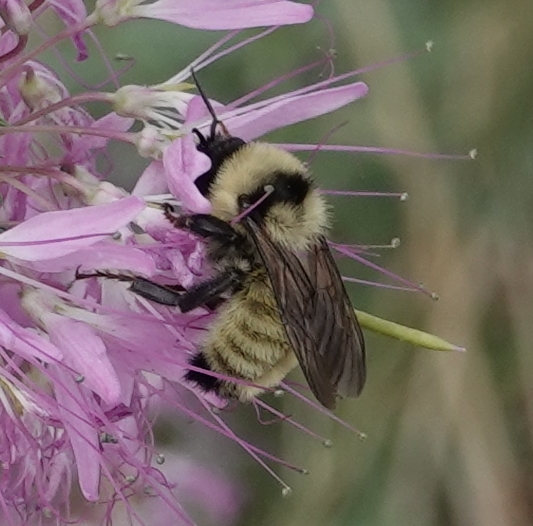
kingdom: Animalia
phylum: Arthropoda
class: Insecta
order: Hymenoptera
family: Apidae
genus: Bombus
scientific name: Bombus fervidus
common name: Yellow bumble bee
